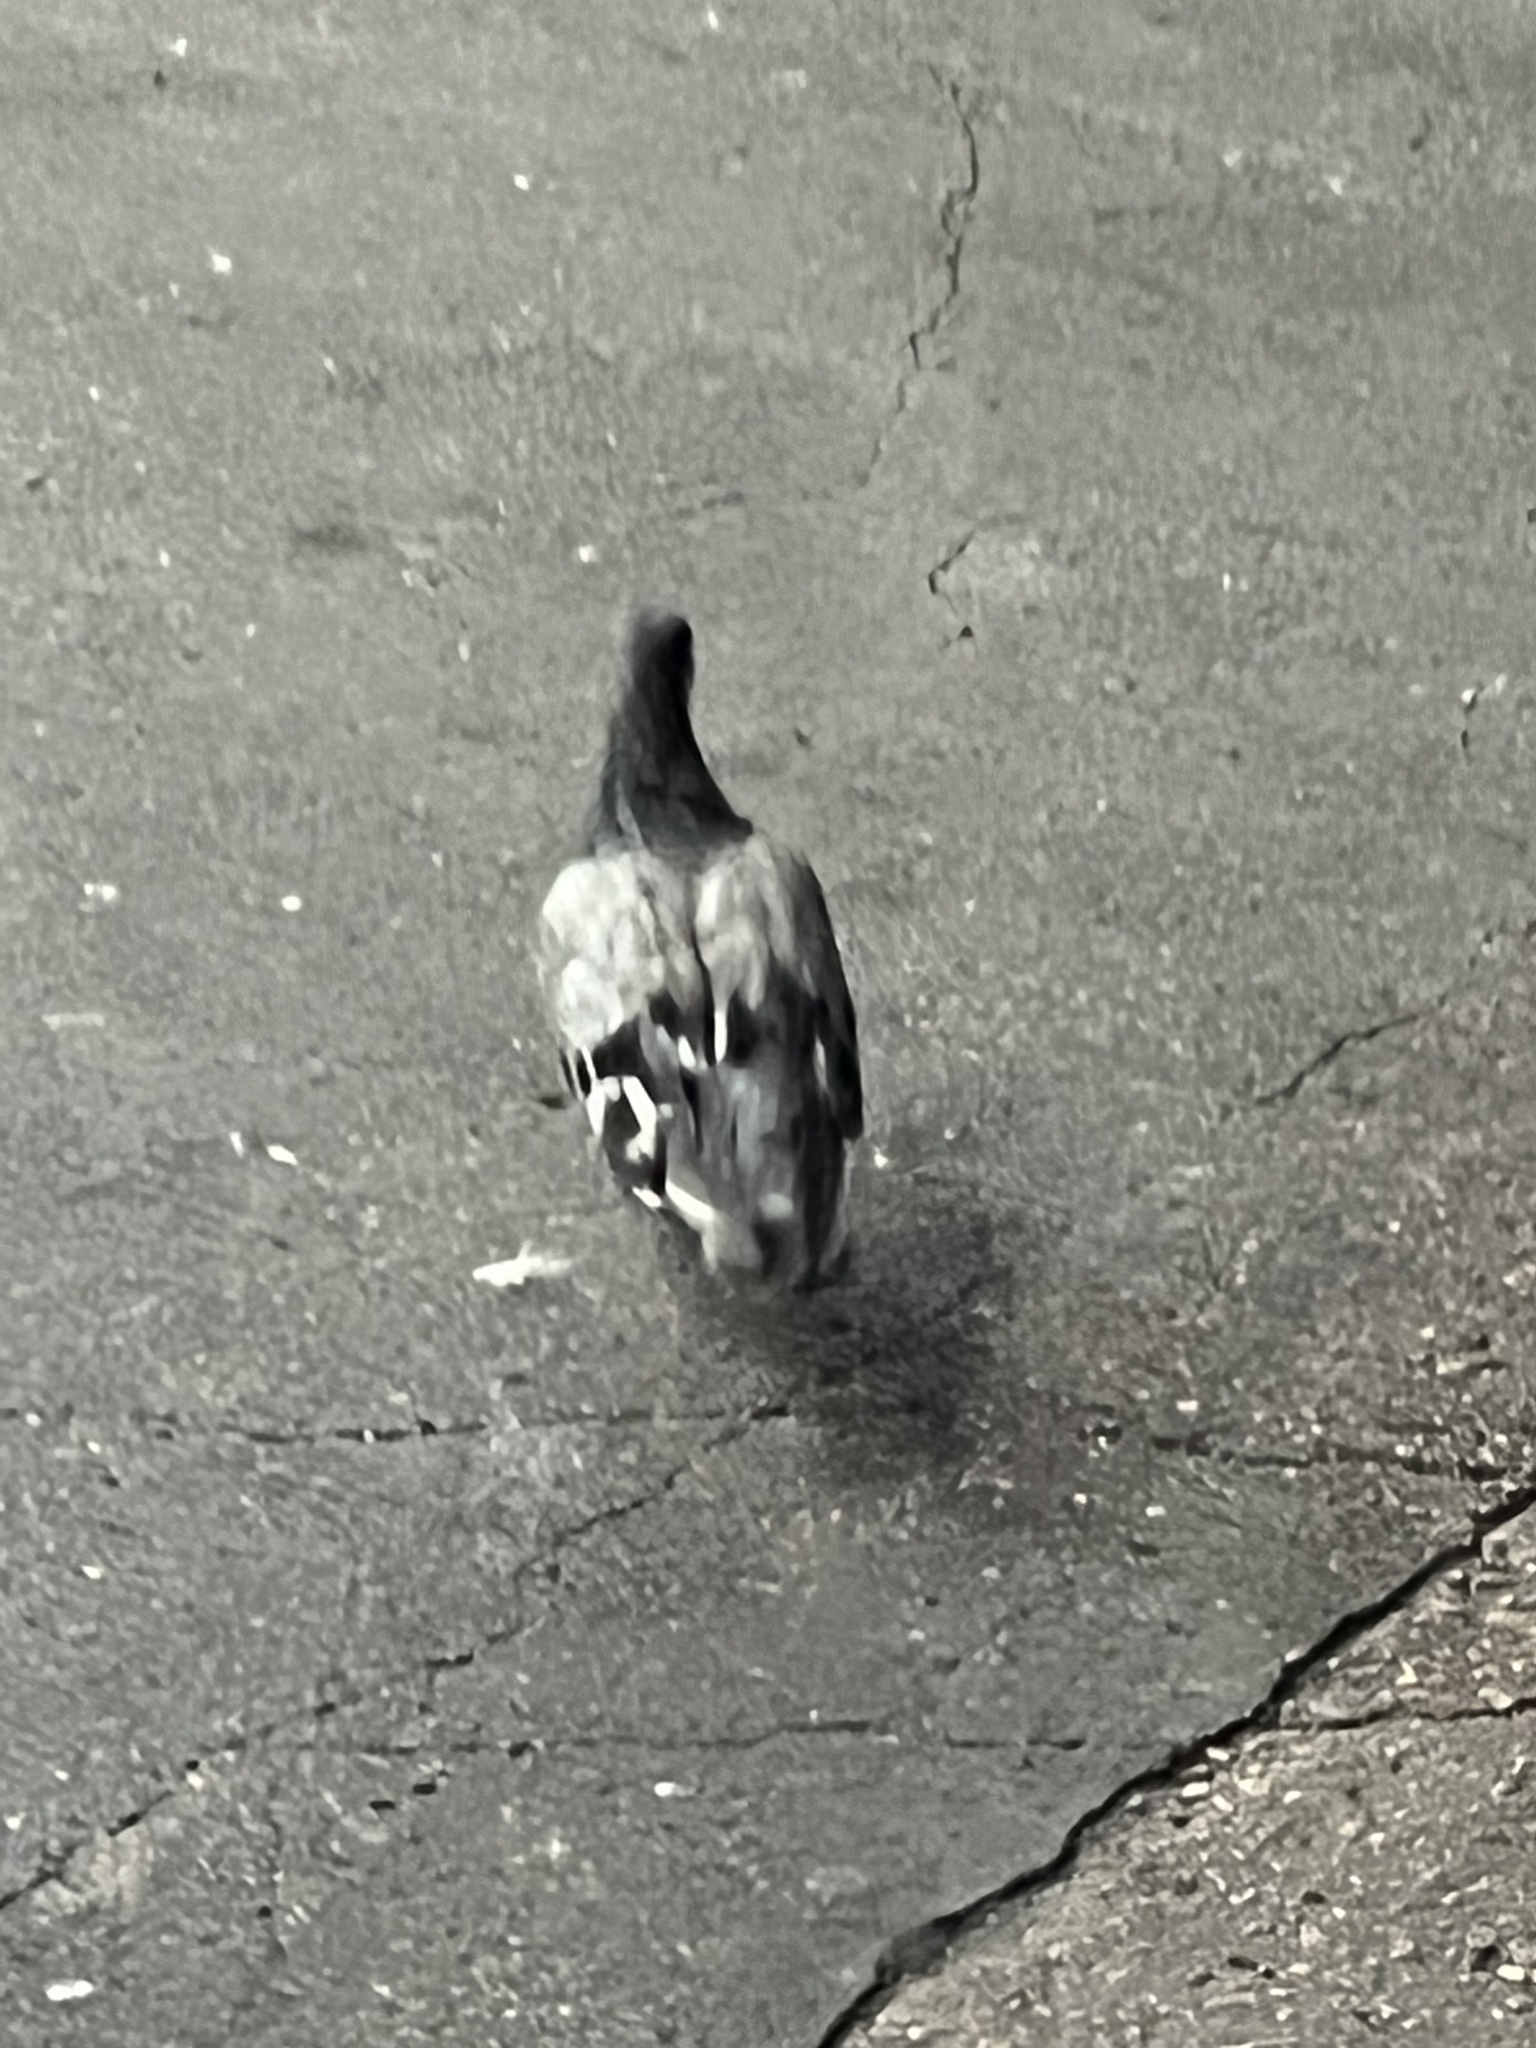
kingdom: Animalia
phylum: Chordata
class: Aves
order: Columbiformes
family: Columbidae
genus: Columba
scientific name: Columba livia
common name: Rock pigeon
